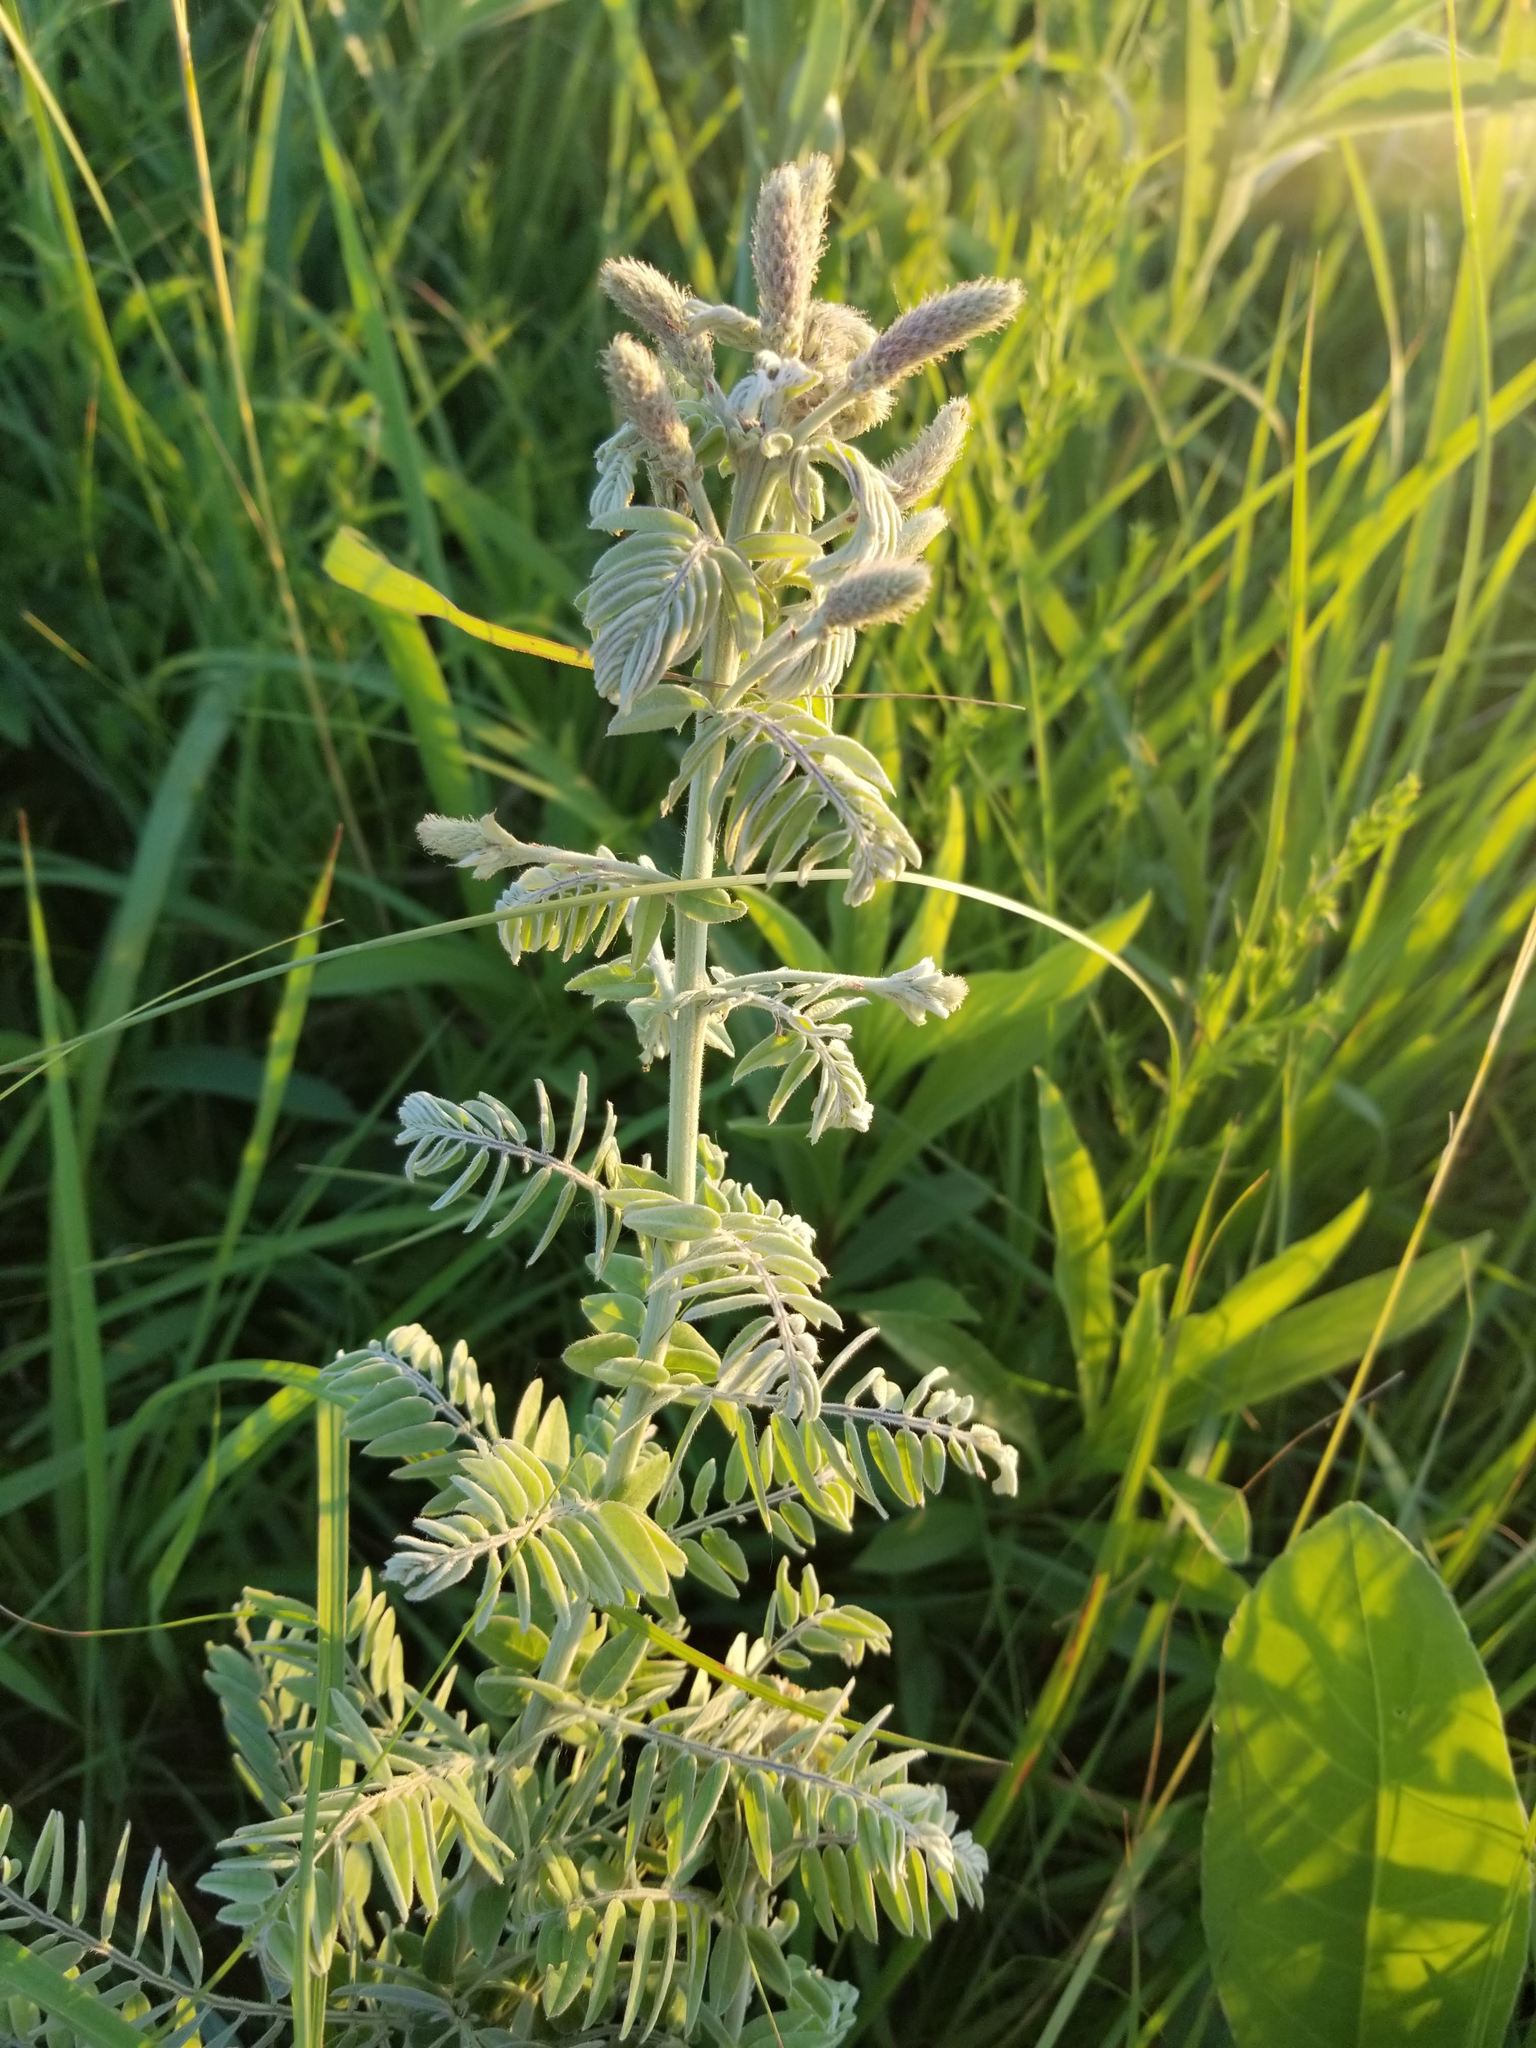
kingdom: Plantae
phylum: Tracheophyta
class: Magnoliopsida
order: Fabales
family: Fabaceae
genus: Amorpha
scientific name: Amorpha canescens
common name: Leadplant
